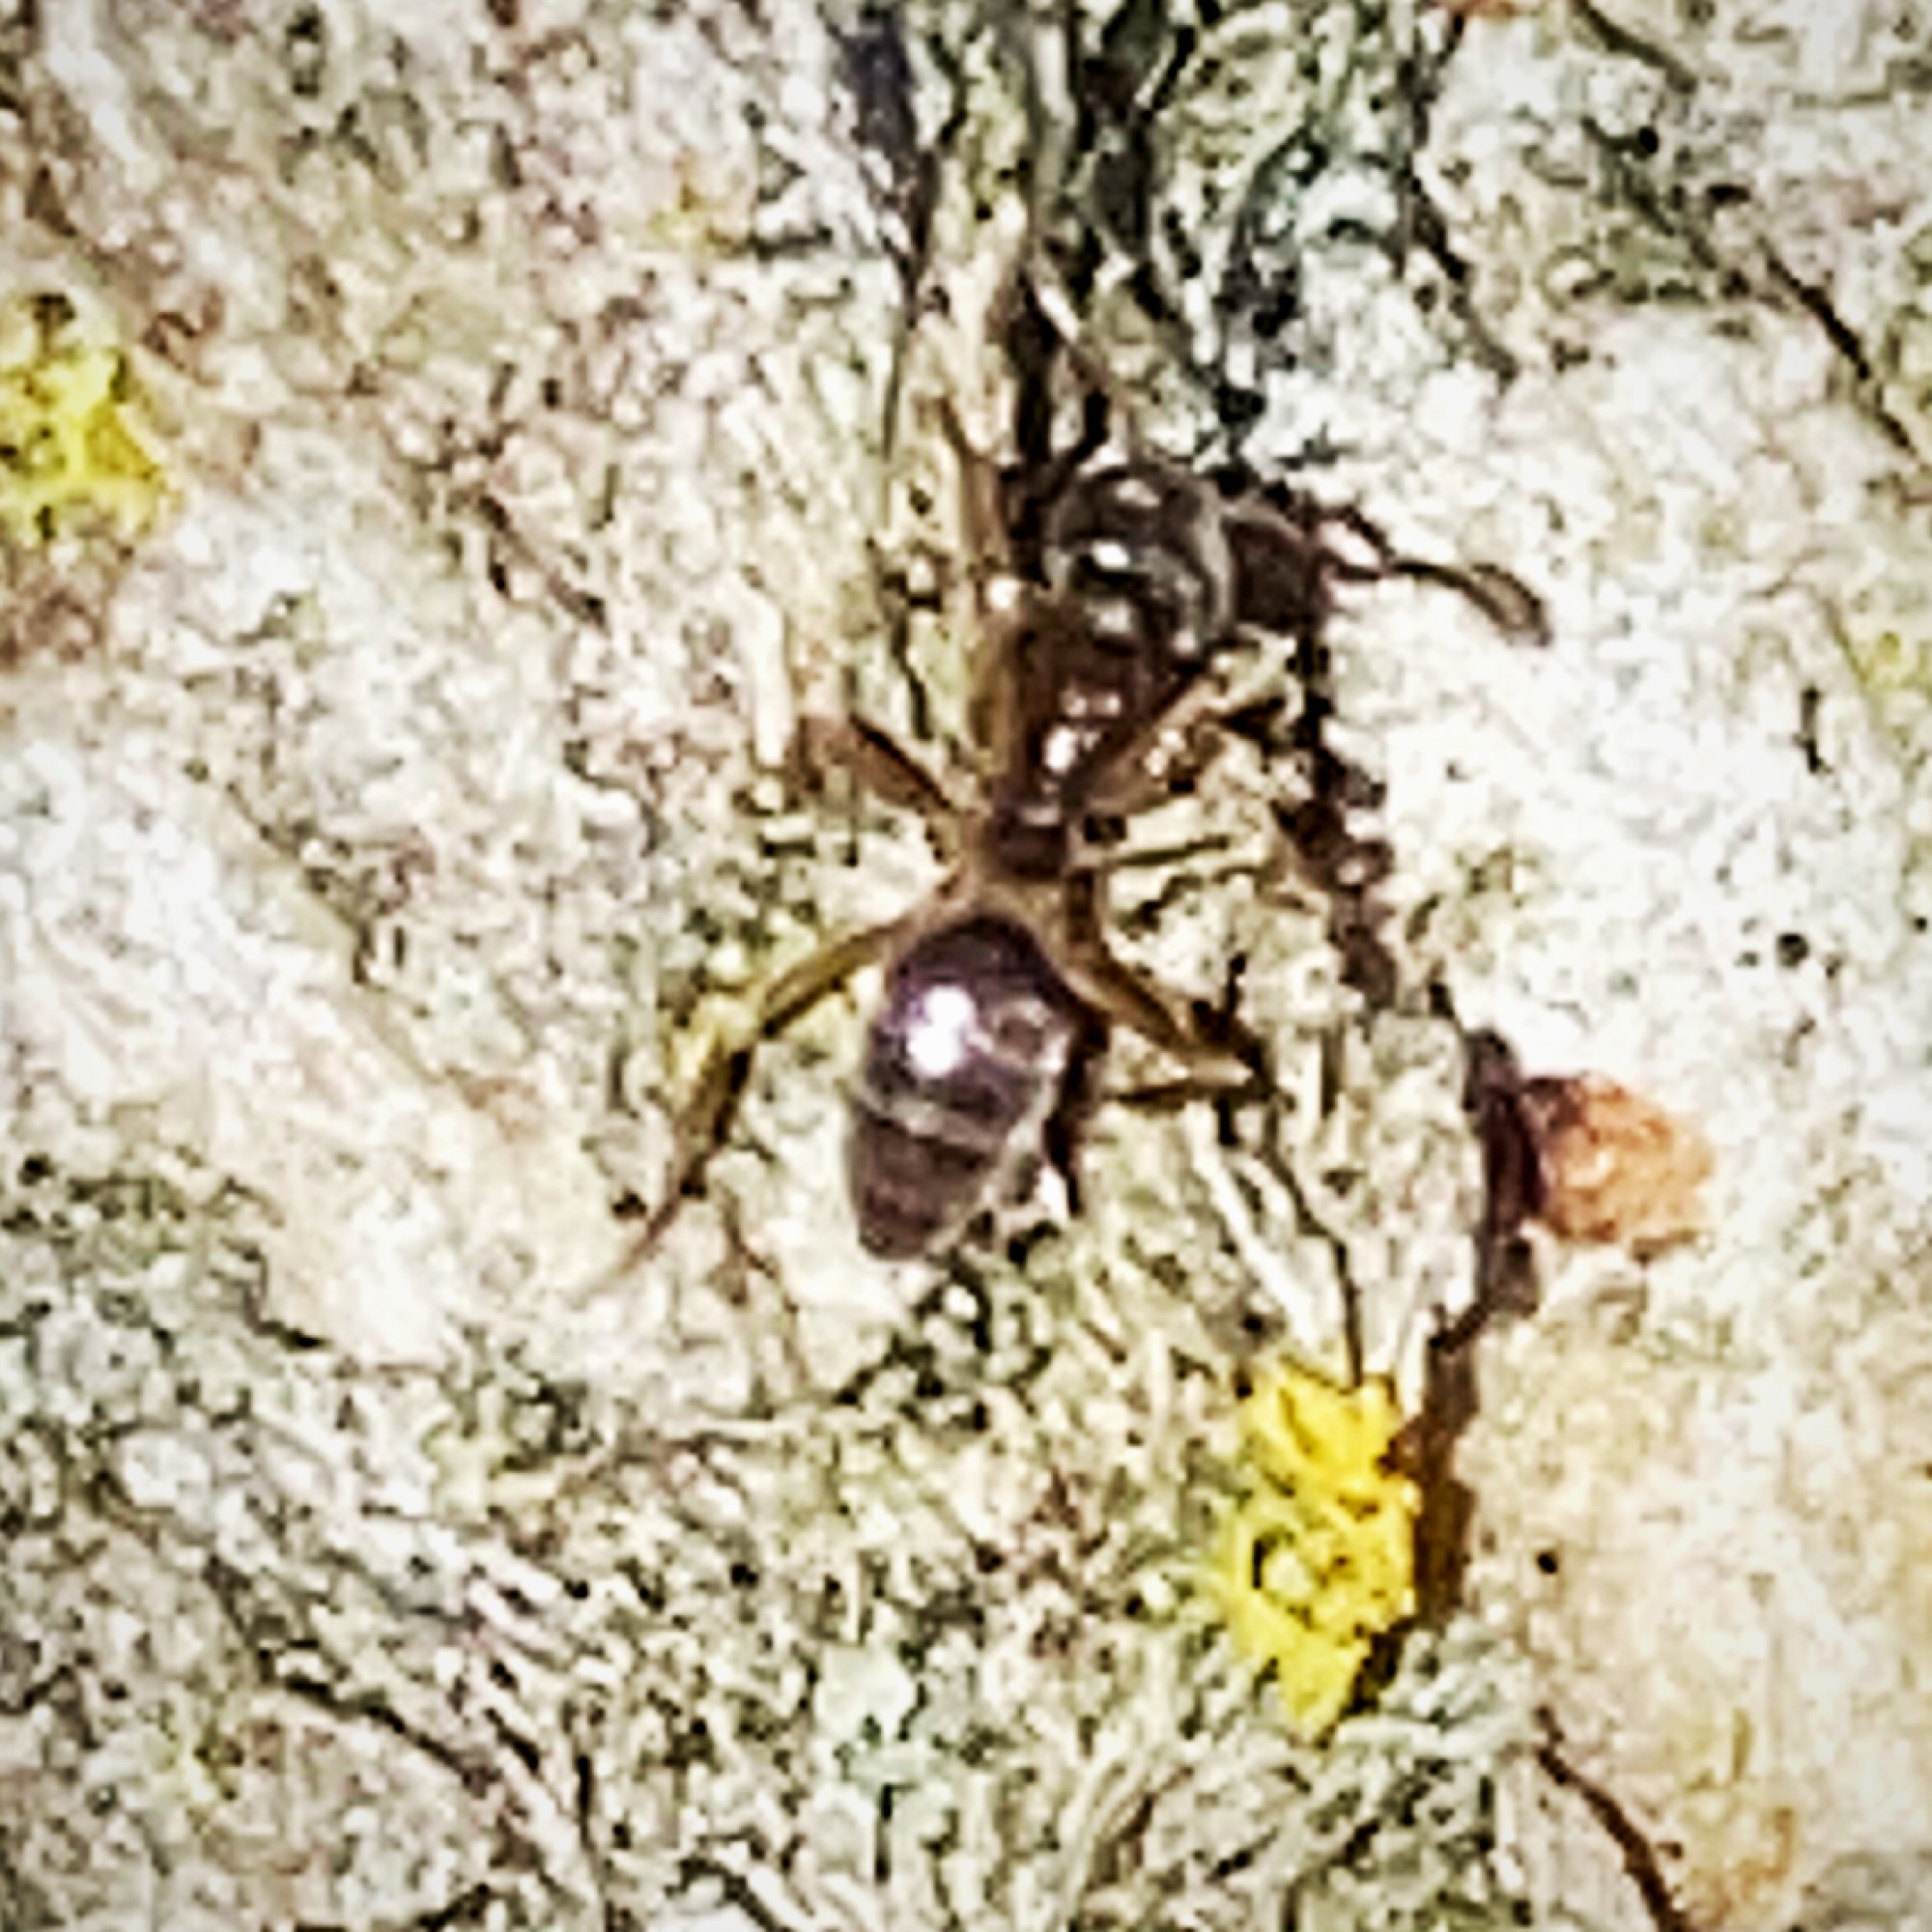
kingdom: Animalia
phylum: Arthropoda
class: Insecta
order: Hymenoptera
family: Formicidae
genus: Tapinoma
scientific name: Tapinoma sessile
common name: Odorous house ant
